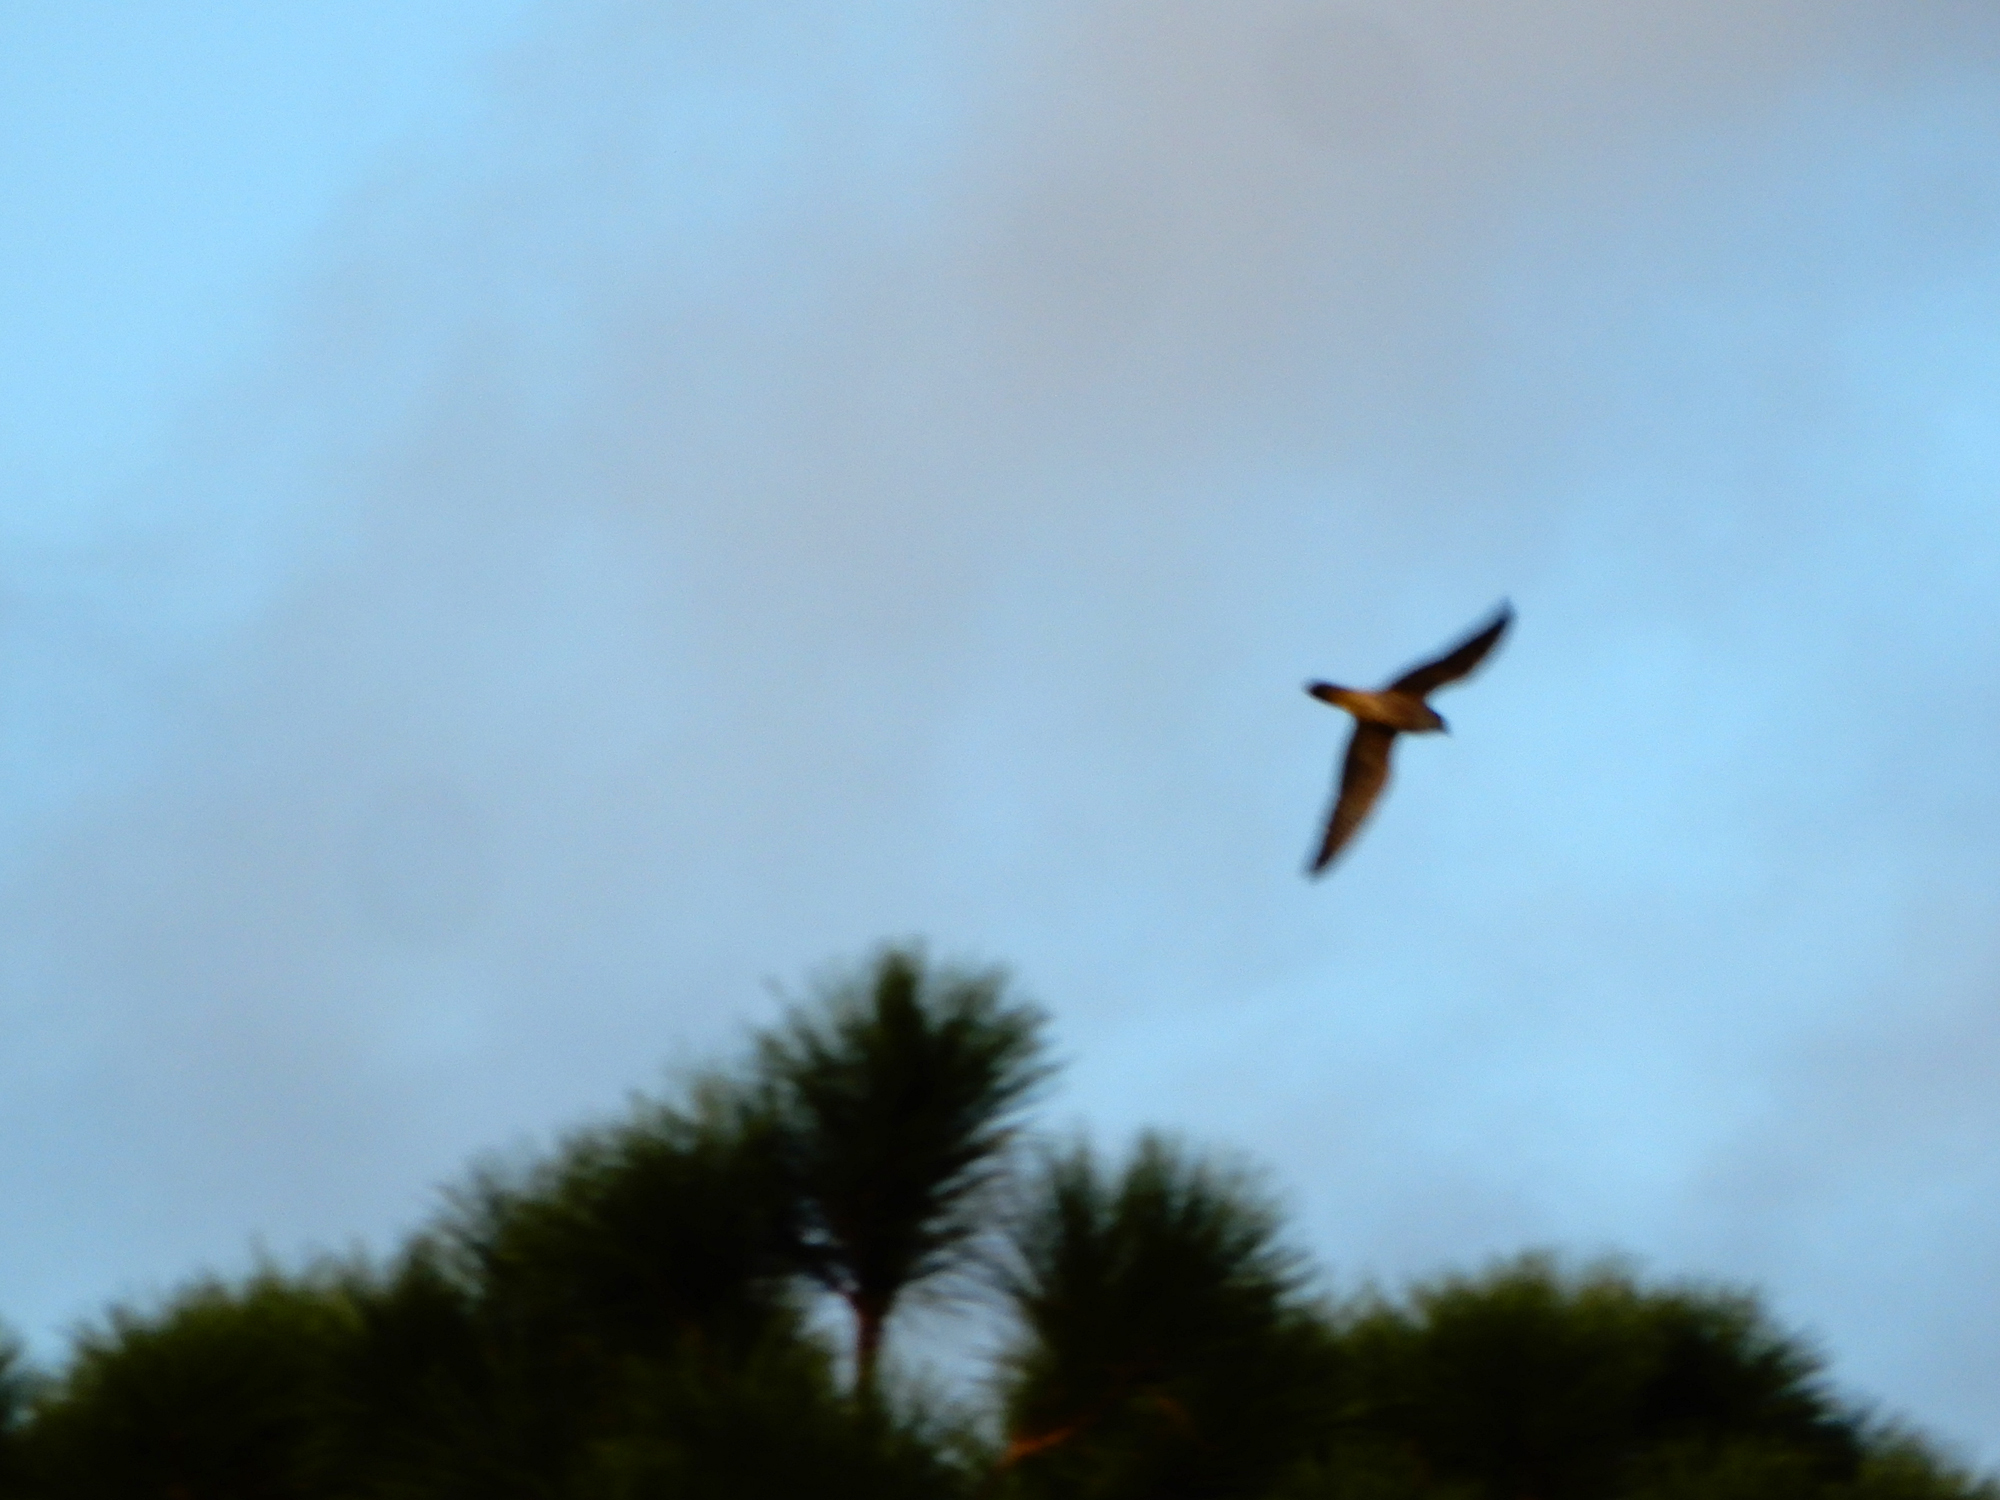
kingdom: Animalia
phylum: Chordata
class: Aves
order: Falconiformes
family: Falconidae
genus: Falco
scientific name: Falco peregrinus
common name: Peregrine falcon
